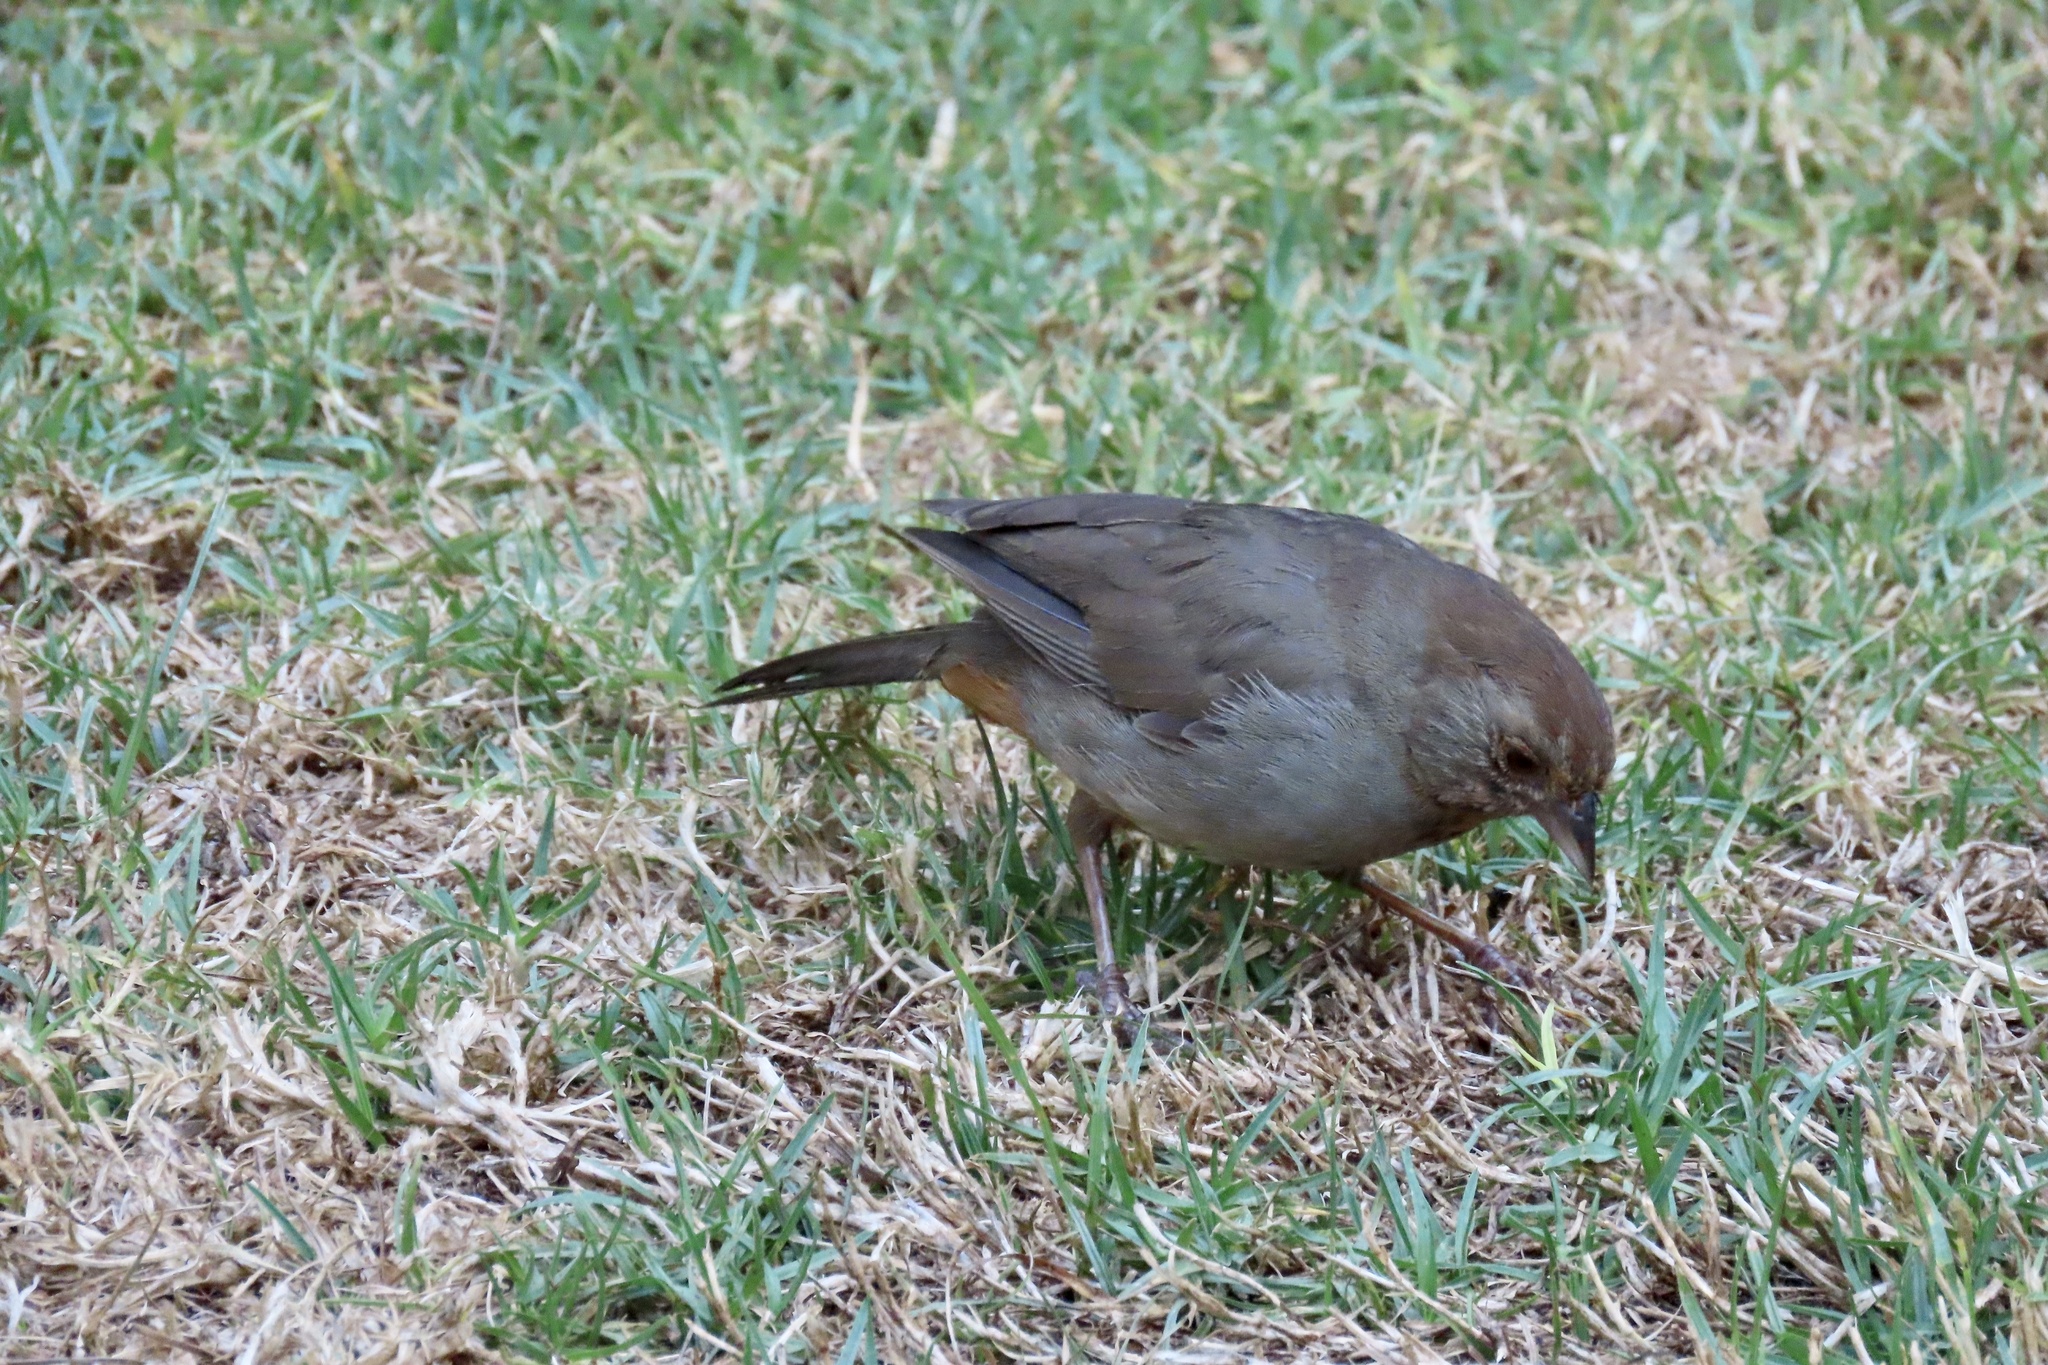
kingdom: Animalia
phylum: Chordata
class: Aves
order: Passeriformes
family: Passerellidae
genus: Melozone
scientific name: Melozone crissalis
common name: California towhee
